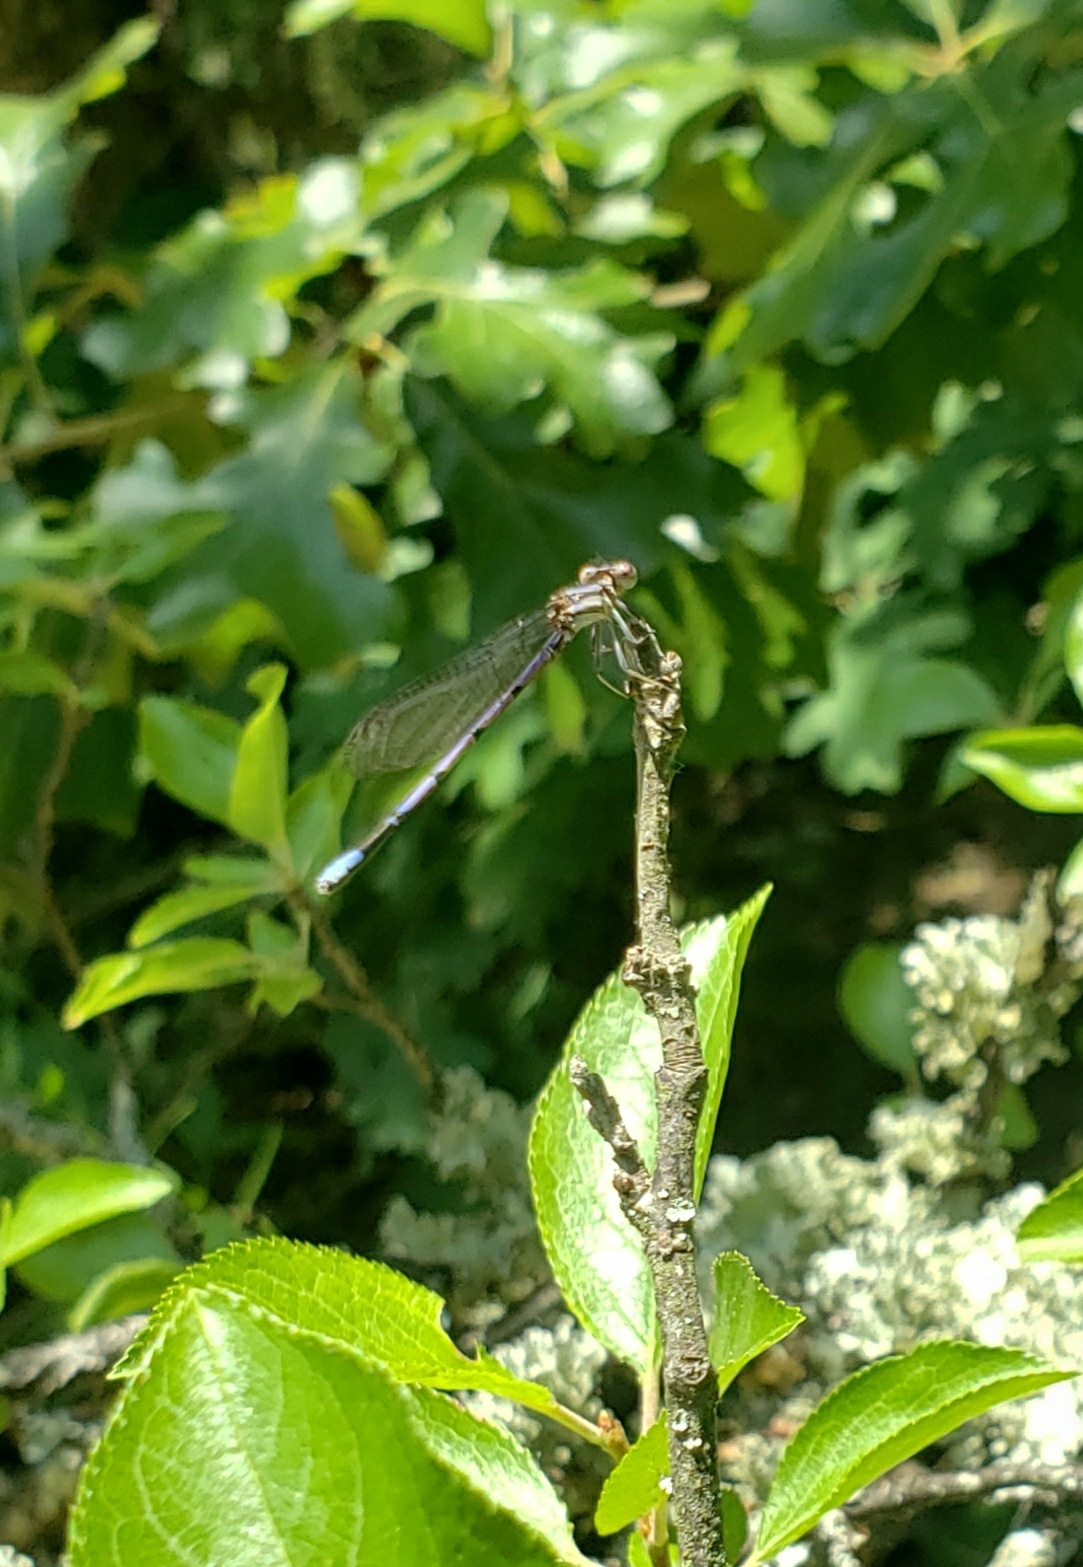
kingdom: Animalia
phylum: Arthropoda
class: Insecta
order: Odonata
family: Coenagrionidae
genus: Argia
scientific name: Argia fumipennis
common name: Variable dancer
